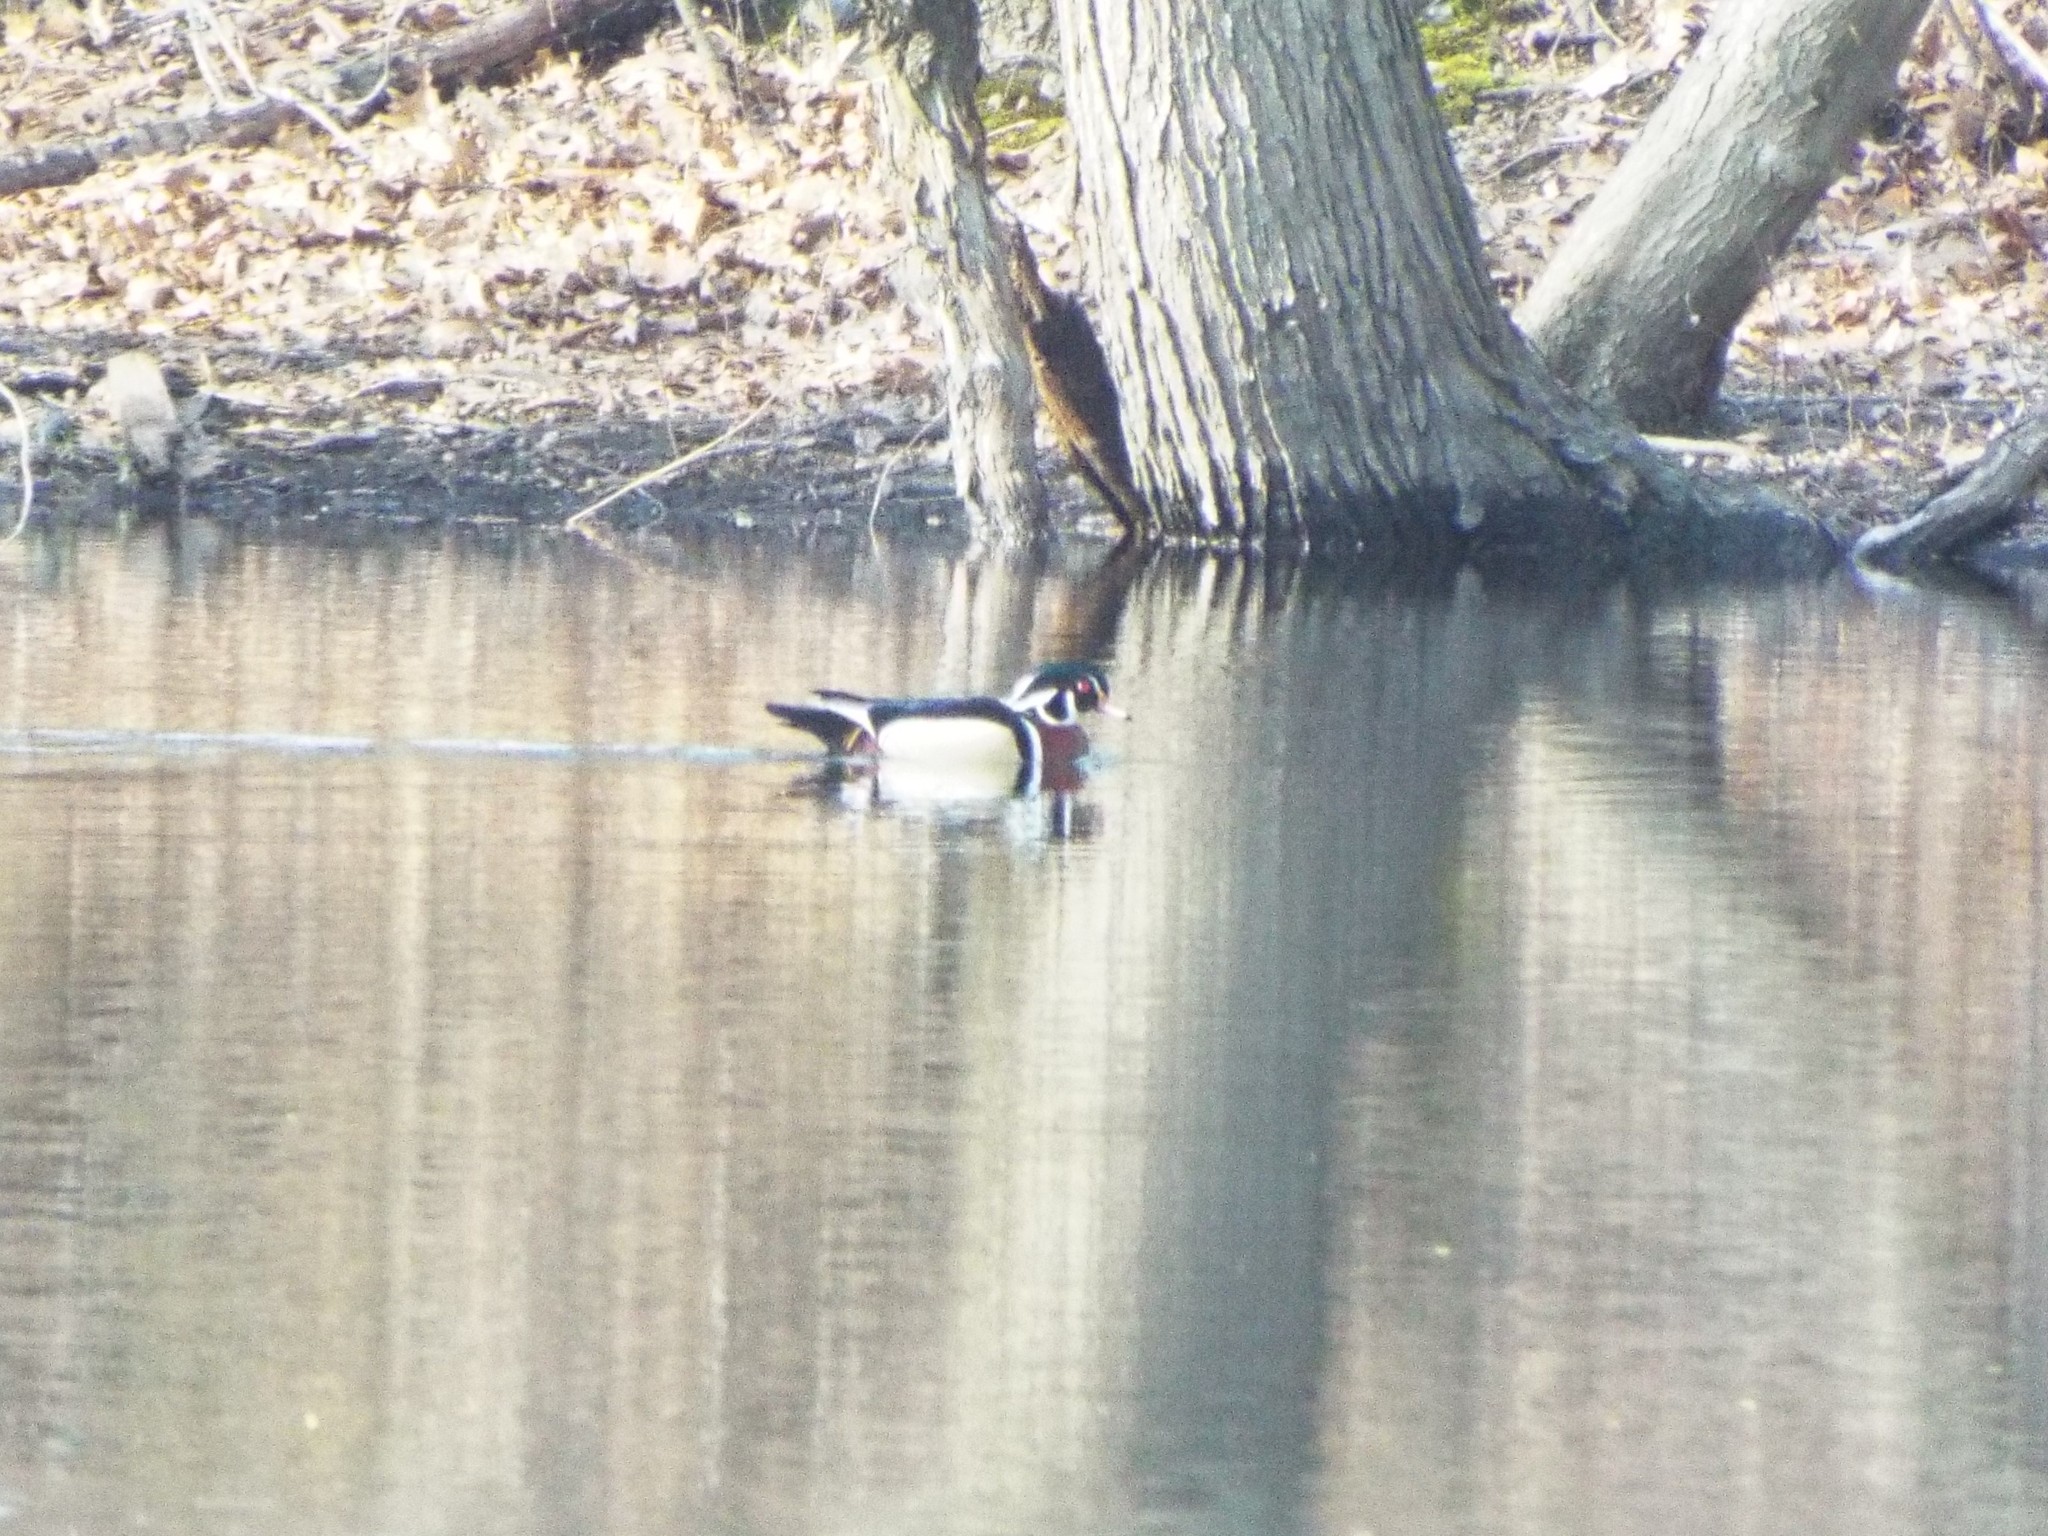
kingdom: Animalia
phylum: Chordata
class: Aves
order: Anseriformes
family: Anatidae
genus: Aix
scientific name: Aix sponsa
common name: Wood duck
